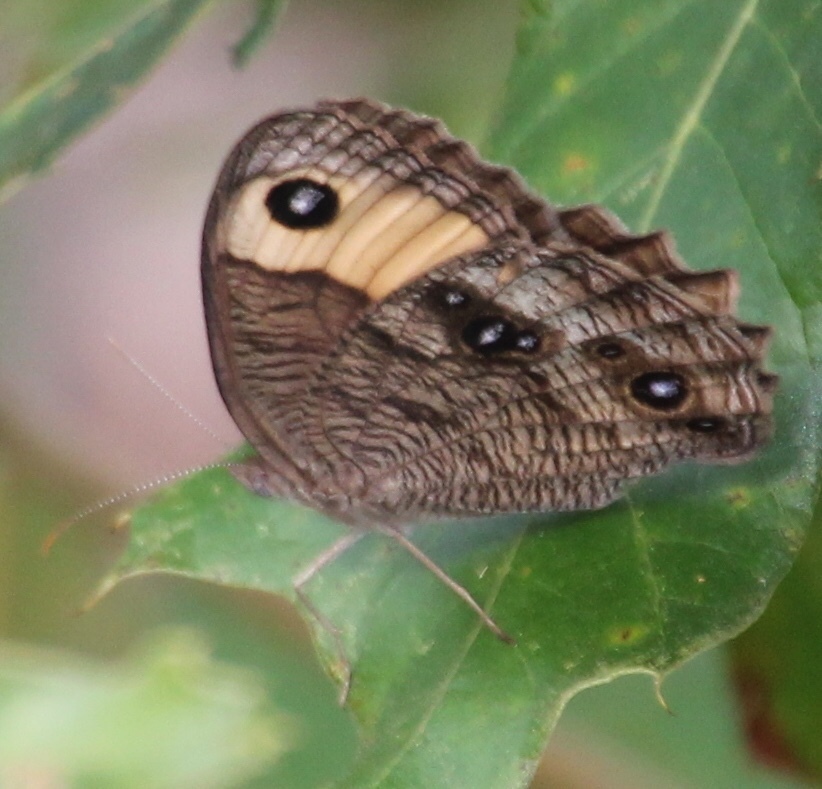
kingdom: Animalia
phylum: Arthropoda
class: Insecta
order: Lepidoptera
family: Nymphalidae
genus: Cercyonis
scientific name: Cercyonis pegala
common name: Common wood-nymph
